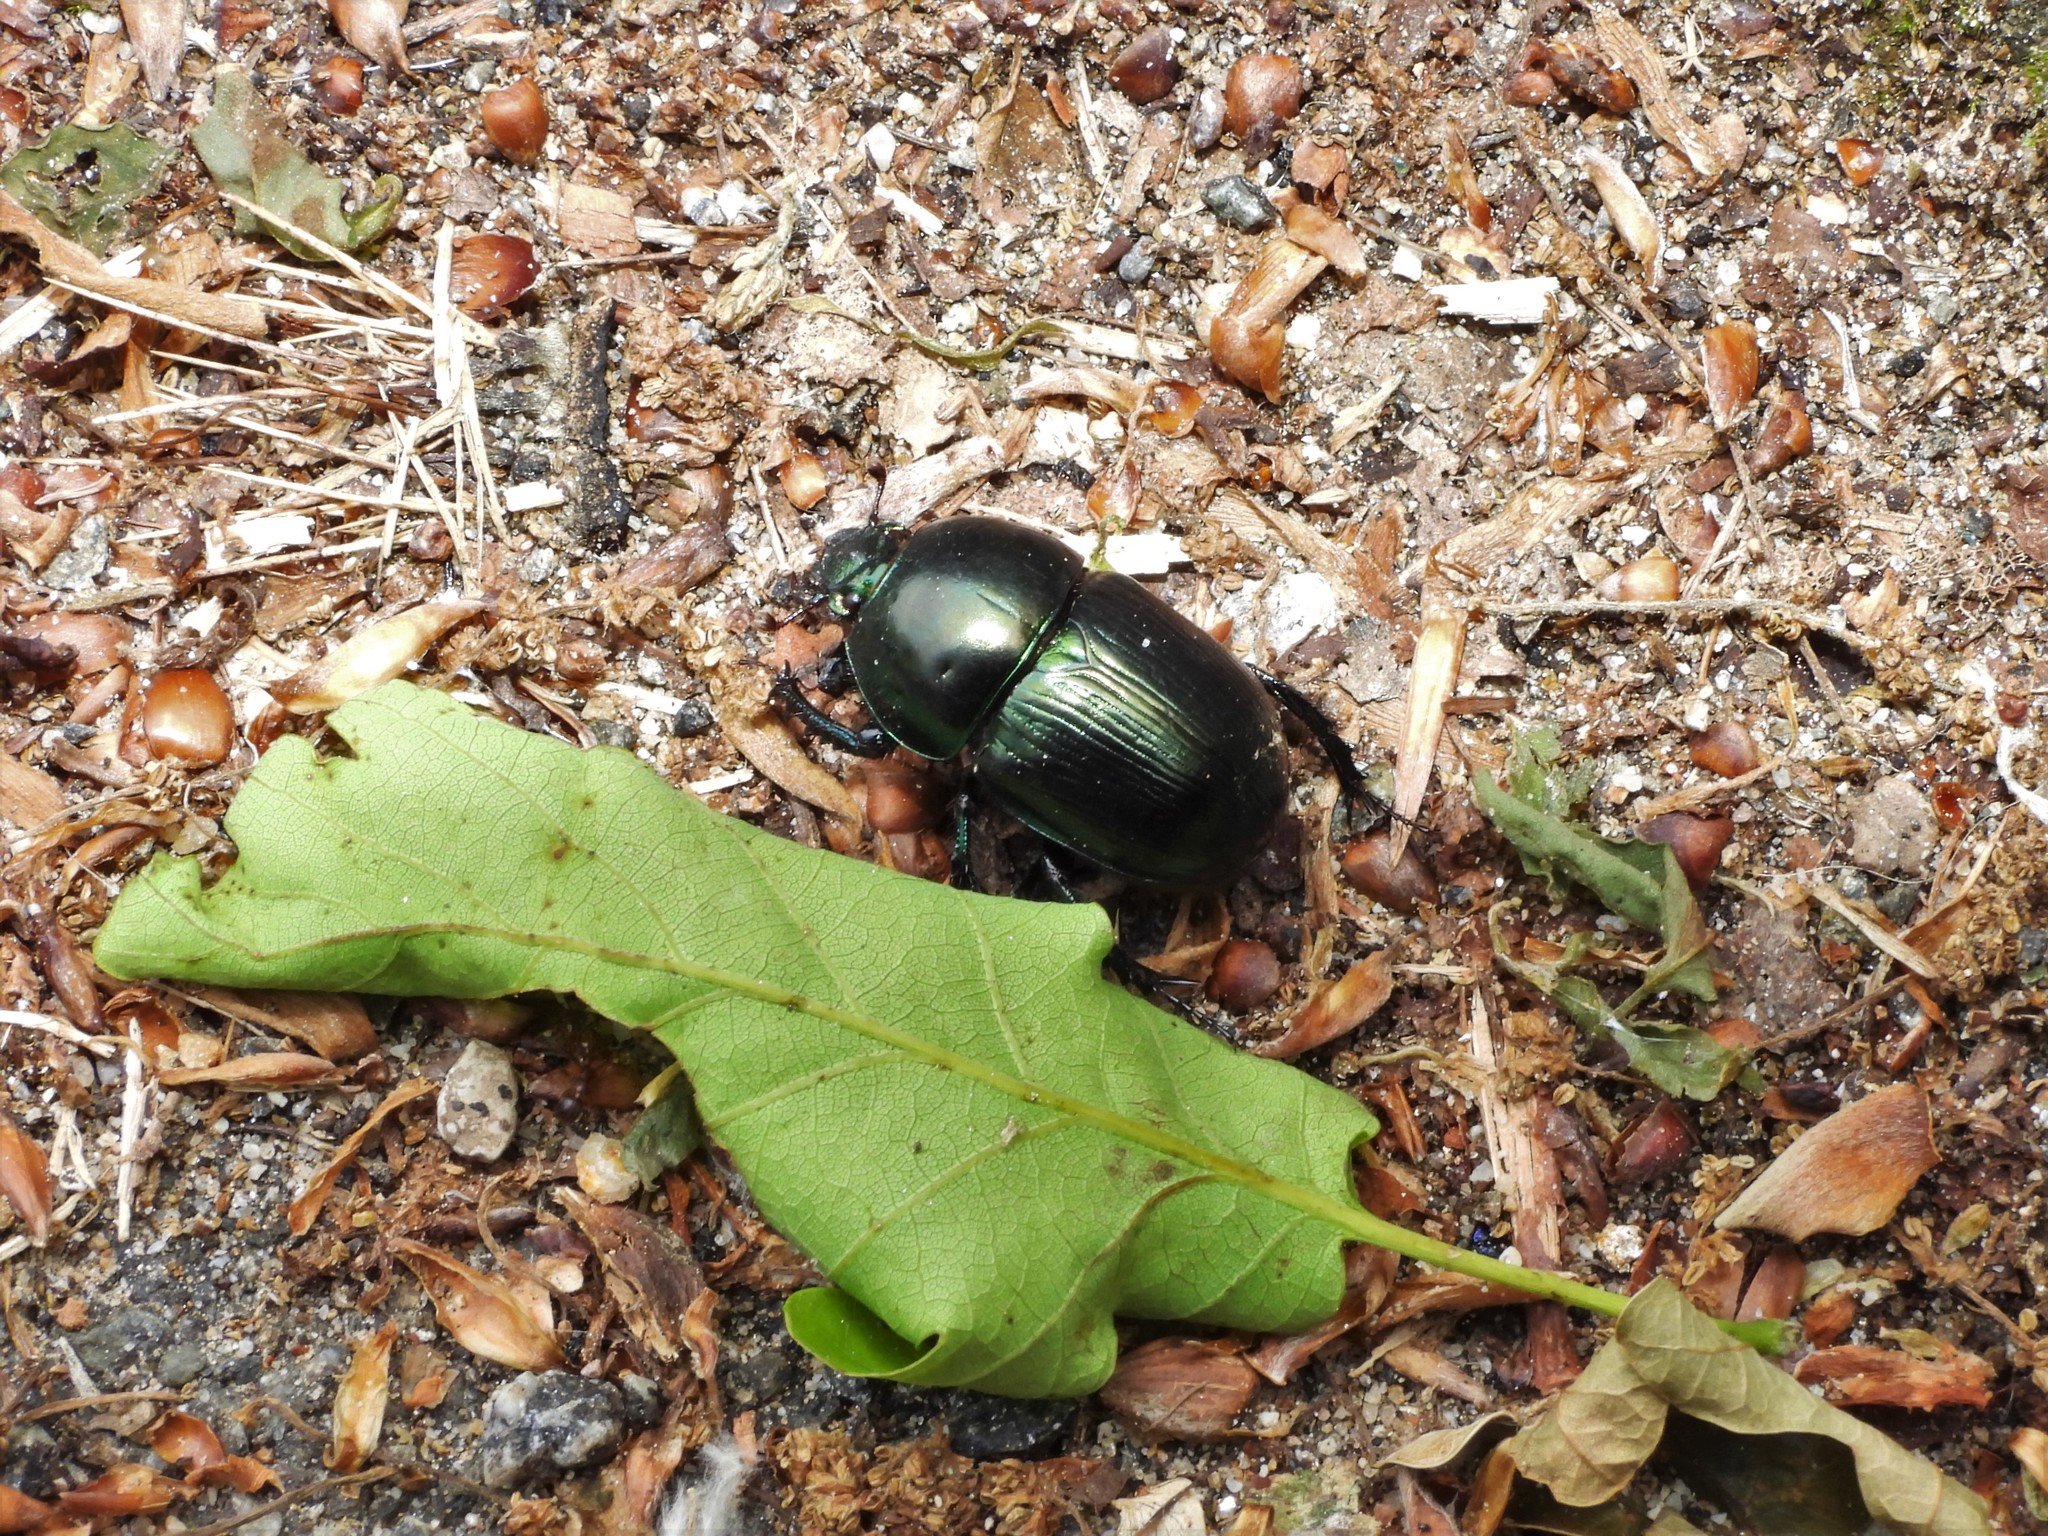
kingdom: Animalia
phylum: Arthropoda
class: Insecta
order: Coleoptera
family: Geotrupidae
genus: Geotrupes
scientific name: Geotrupes mutator
